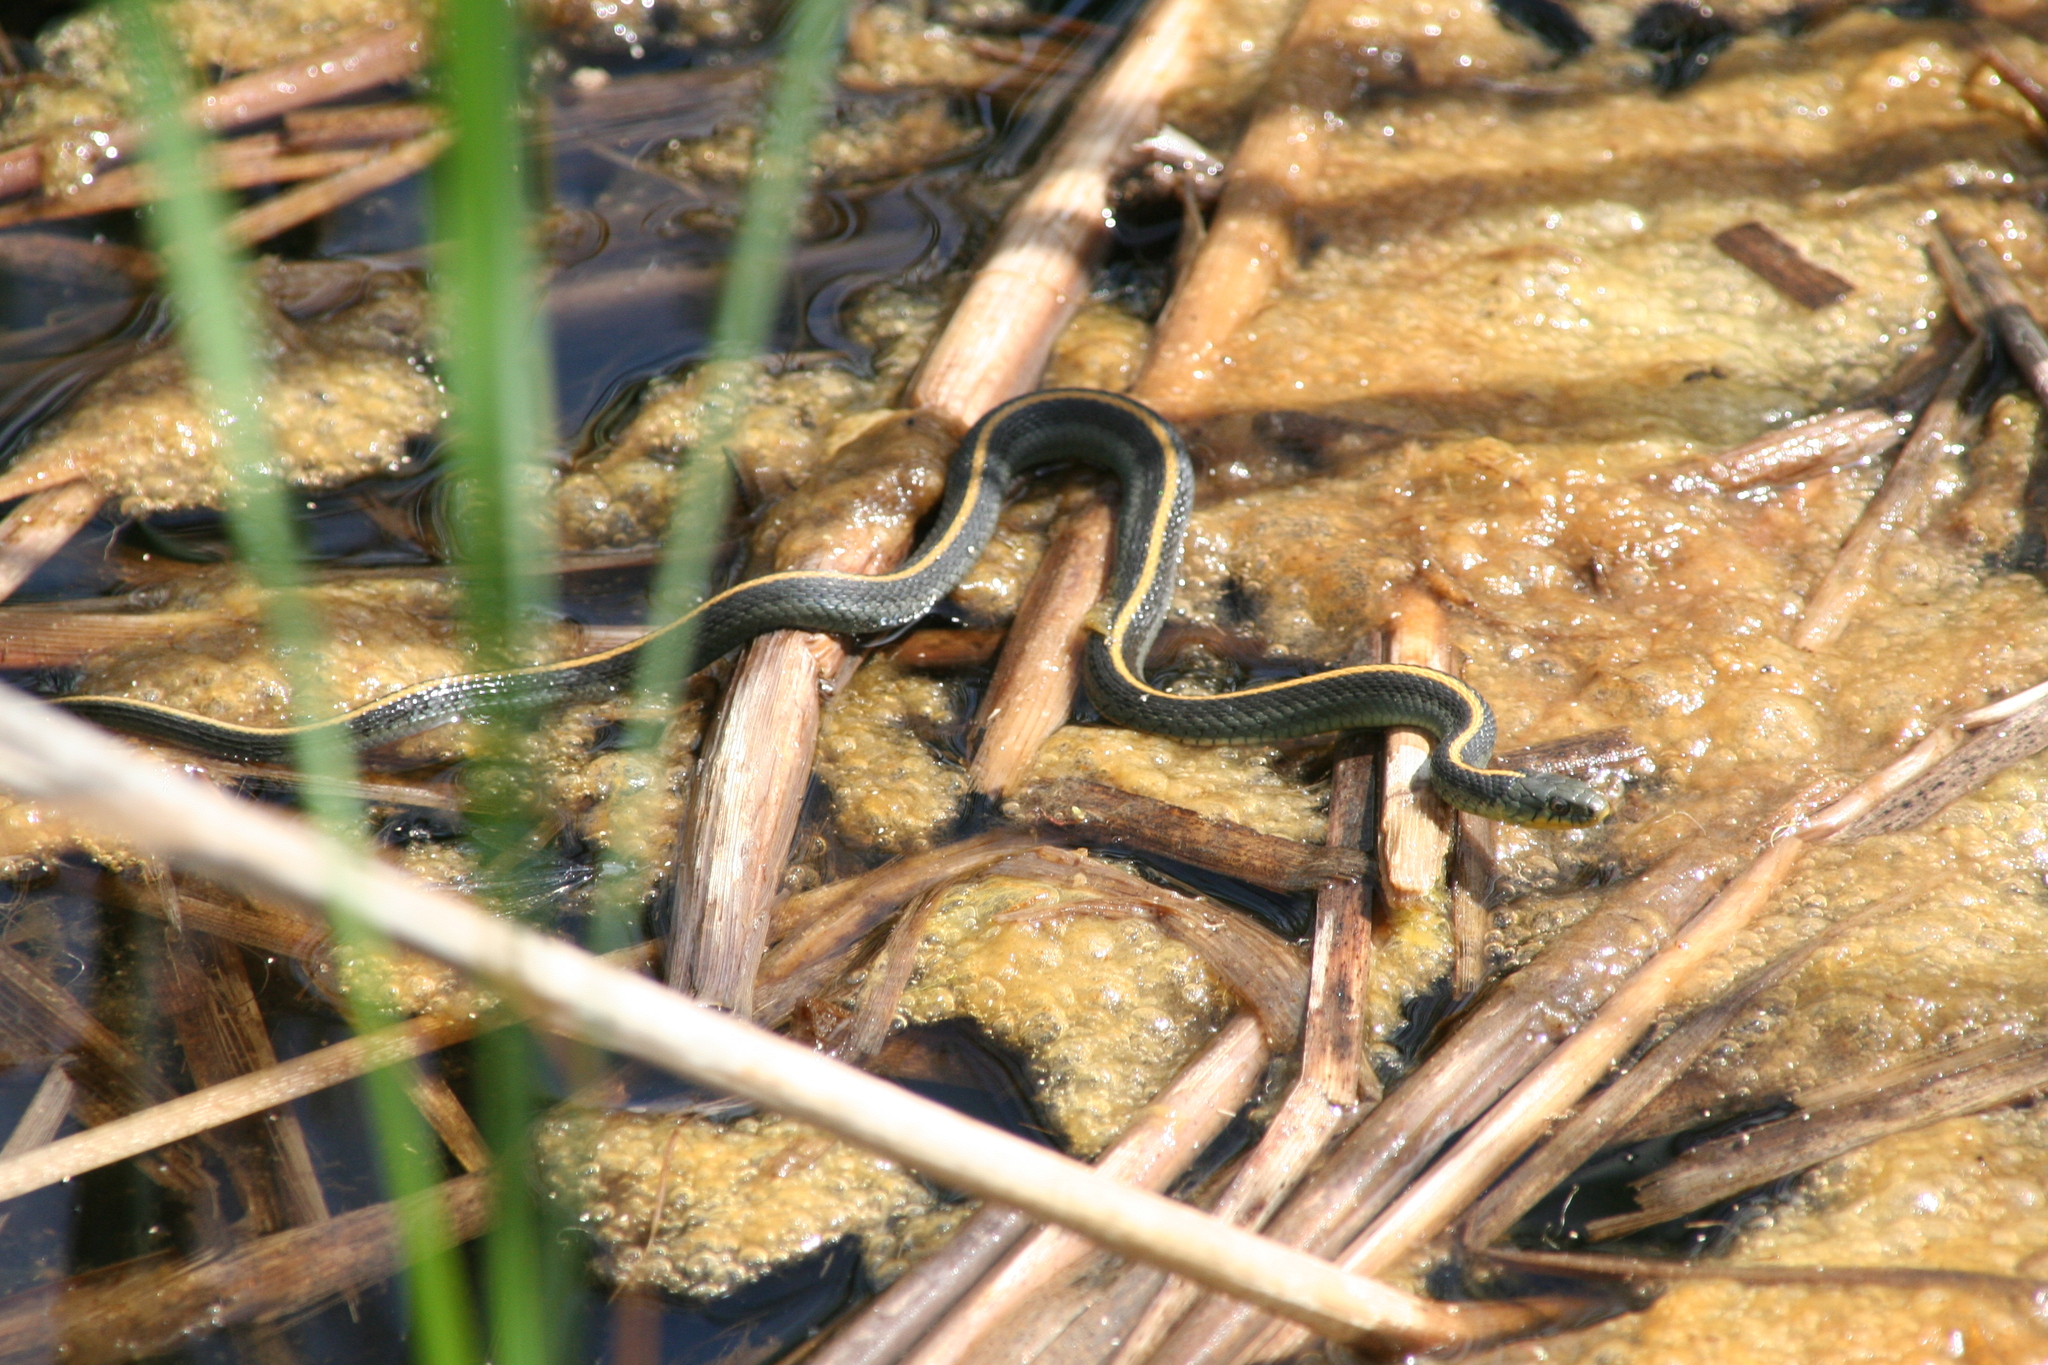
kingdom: Animalia
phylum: Chordata
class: Squamata
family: Colubridae
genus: Thamnophis
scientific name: Thamnophis atratus
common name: Pacific coast aquatic garter snake
